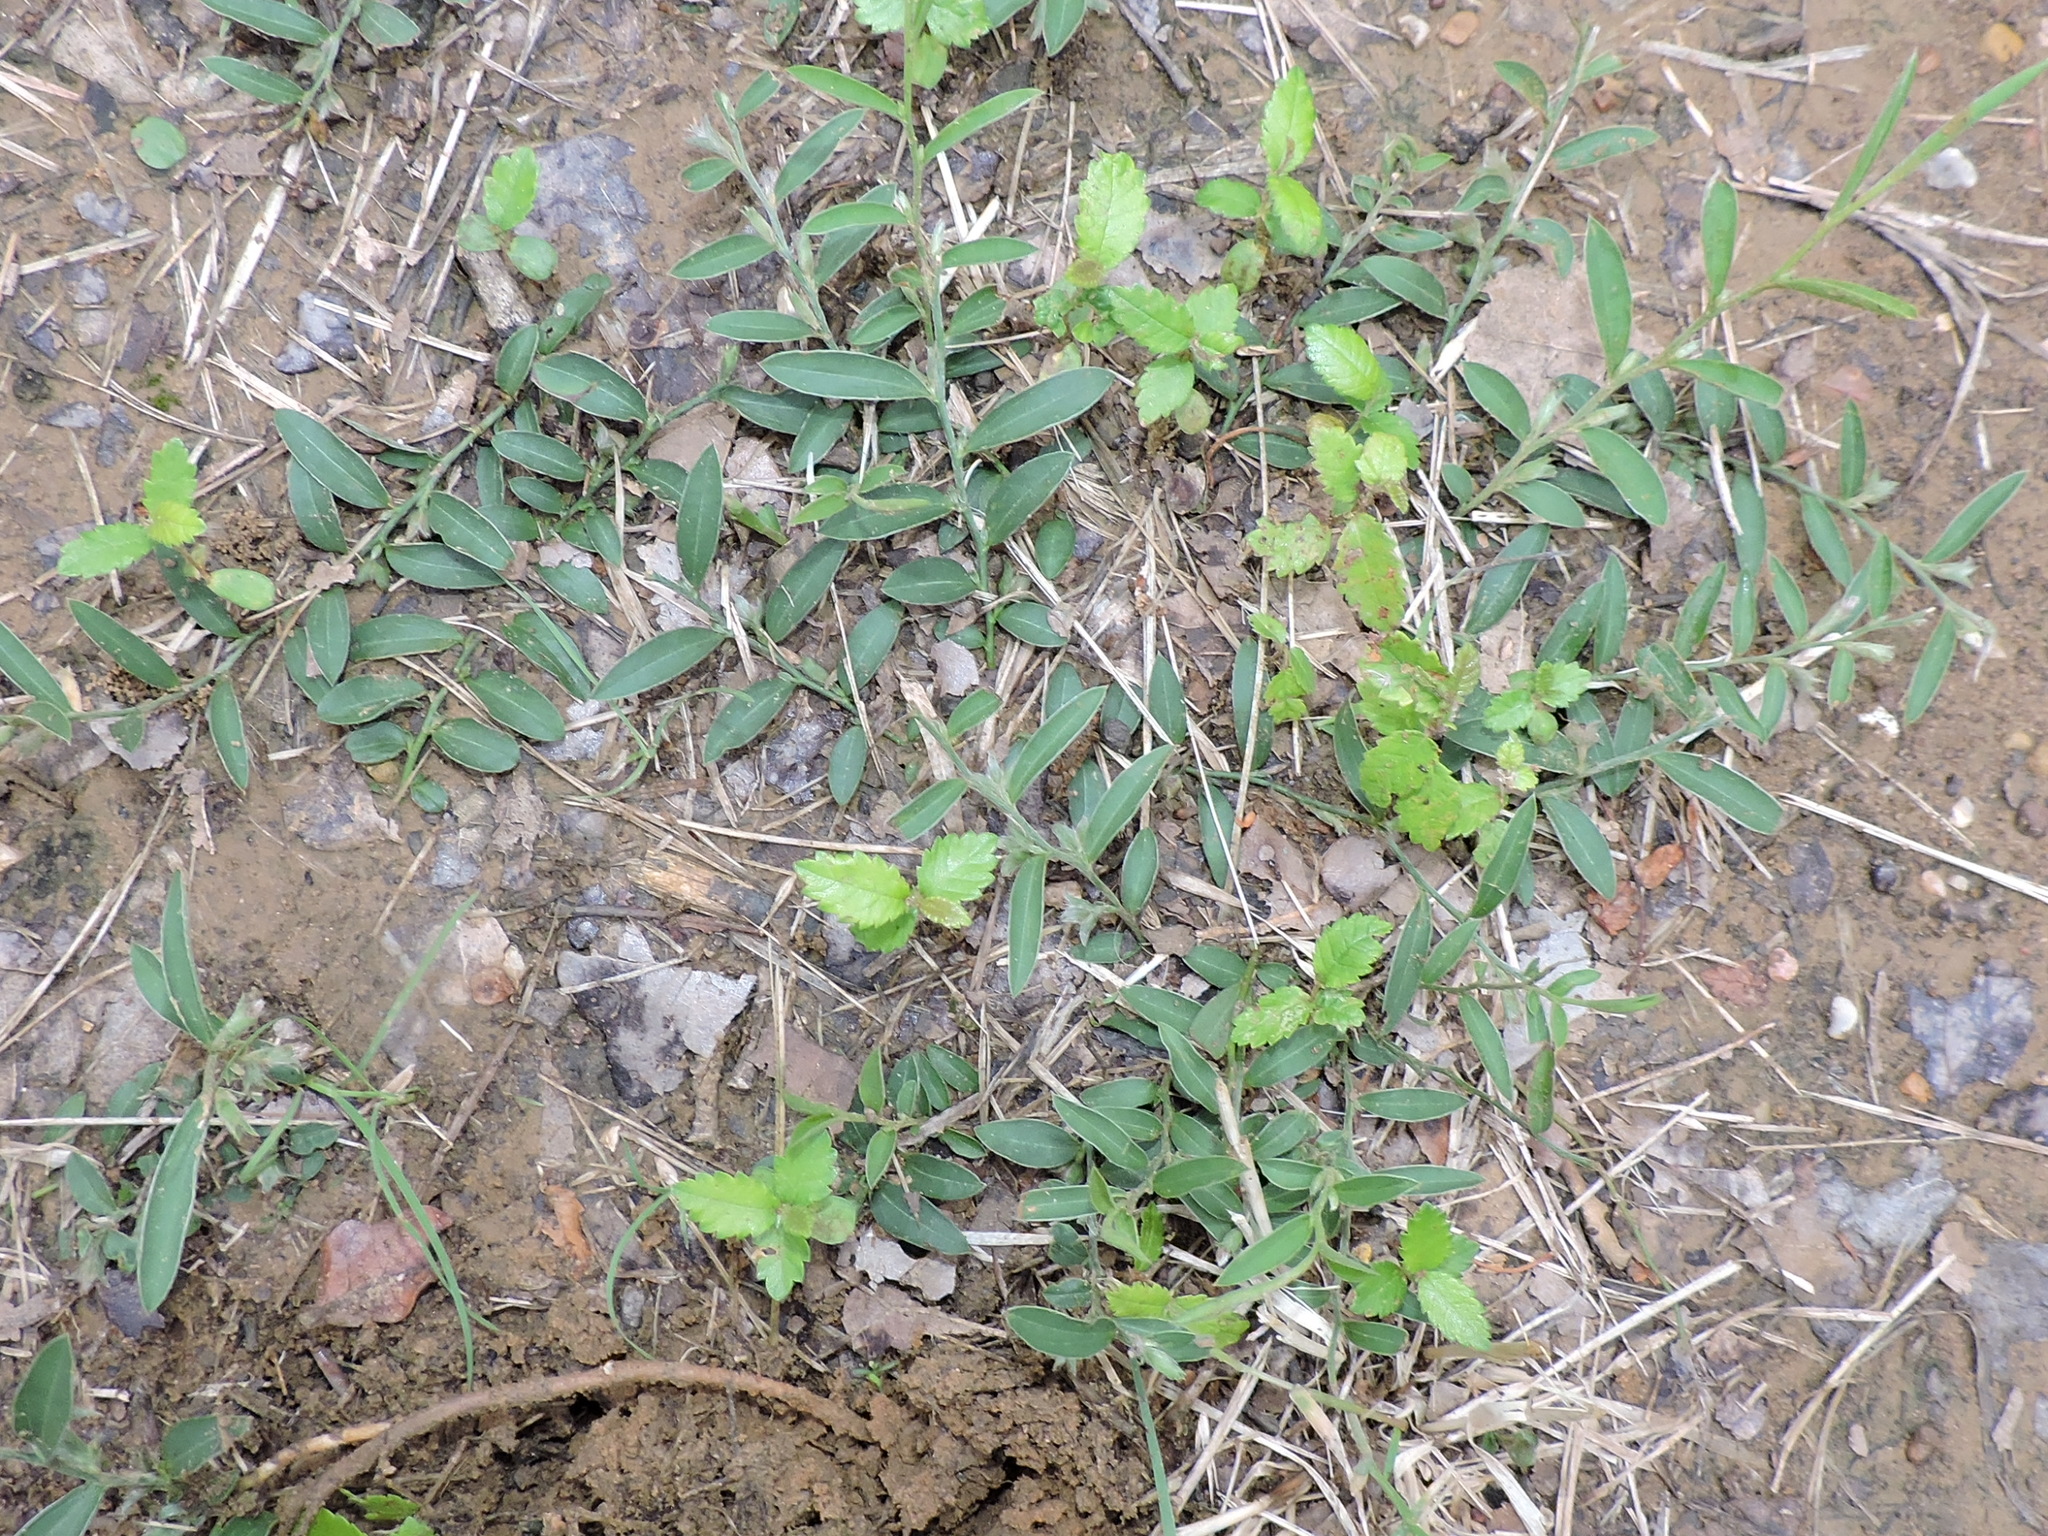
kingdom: Plantae
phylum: Tracheophyta
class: Magnoliopsida
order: Solanales
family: Convolvulaceae
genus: Evolvulus
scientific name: Evolvulus sericeus
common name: Blue dots
